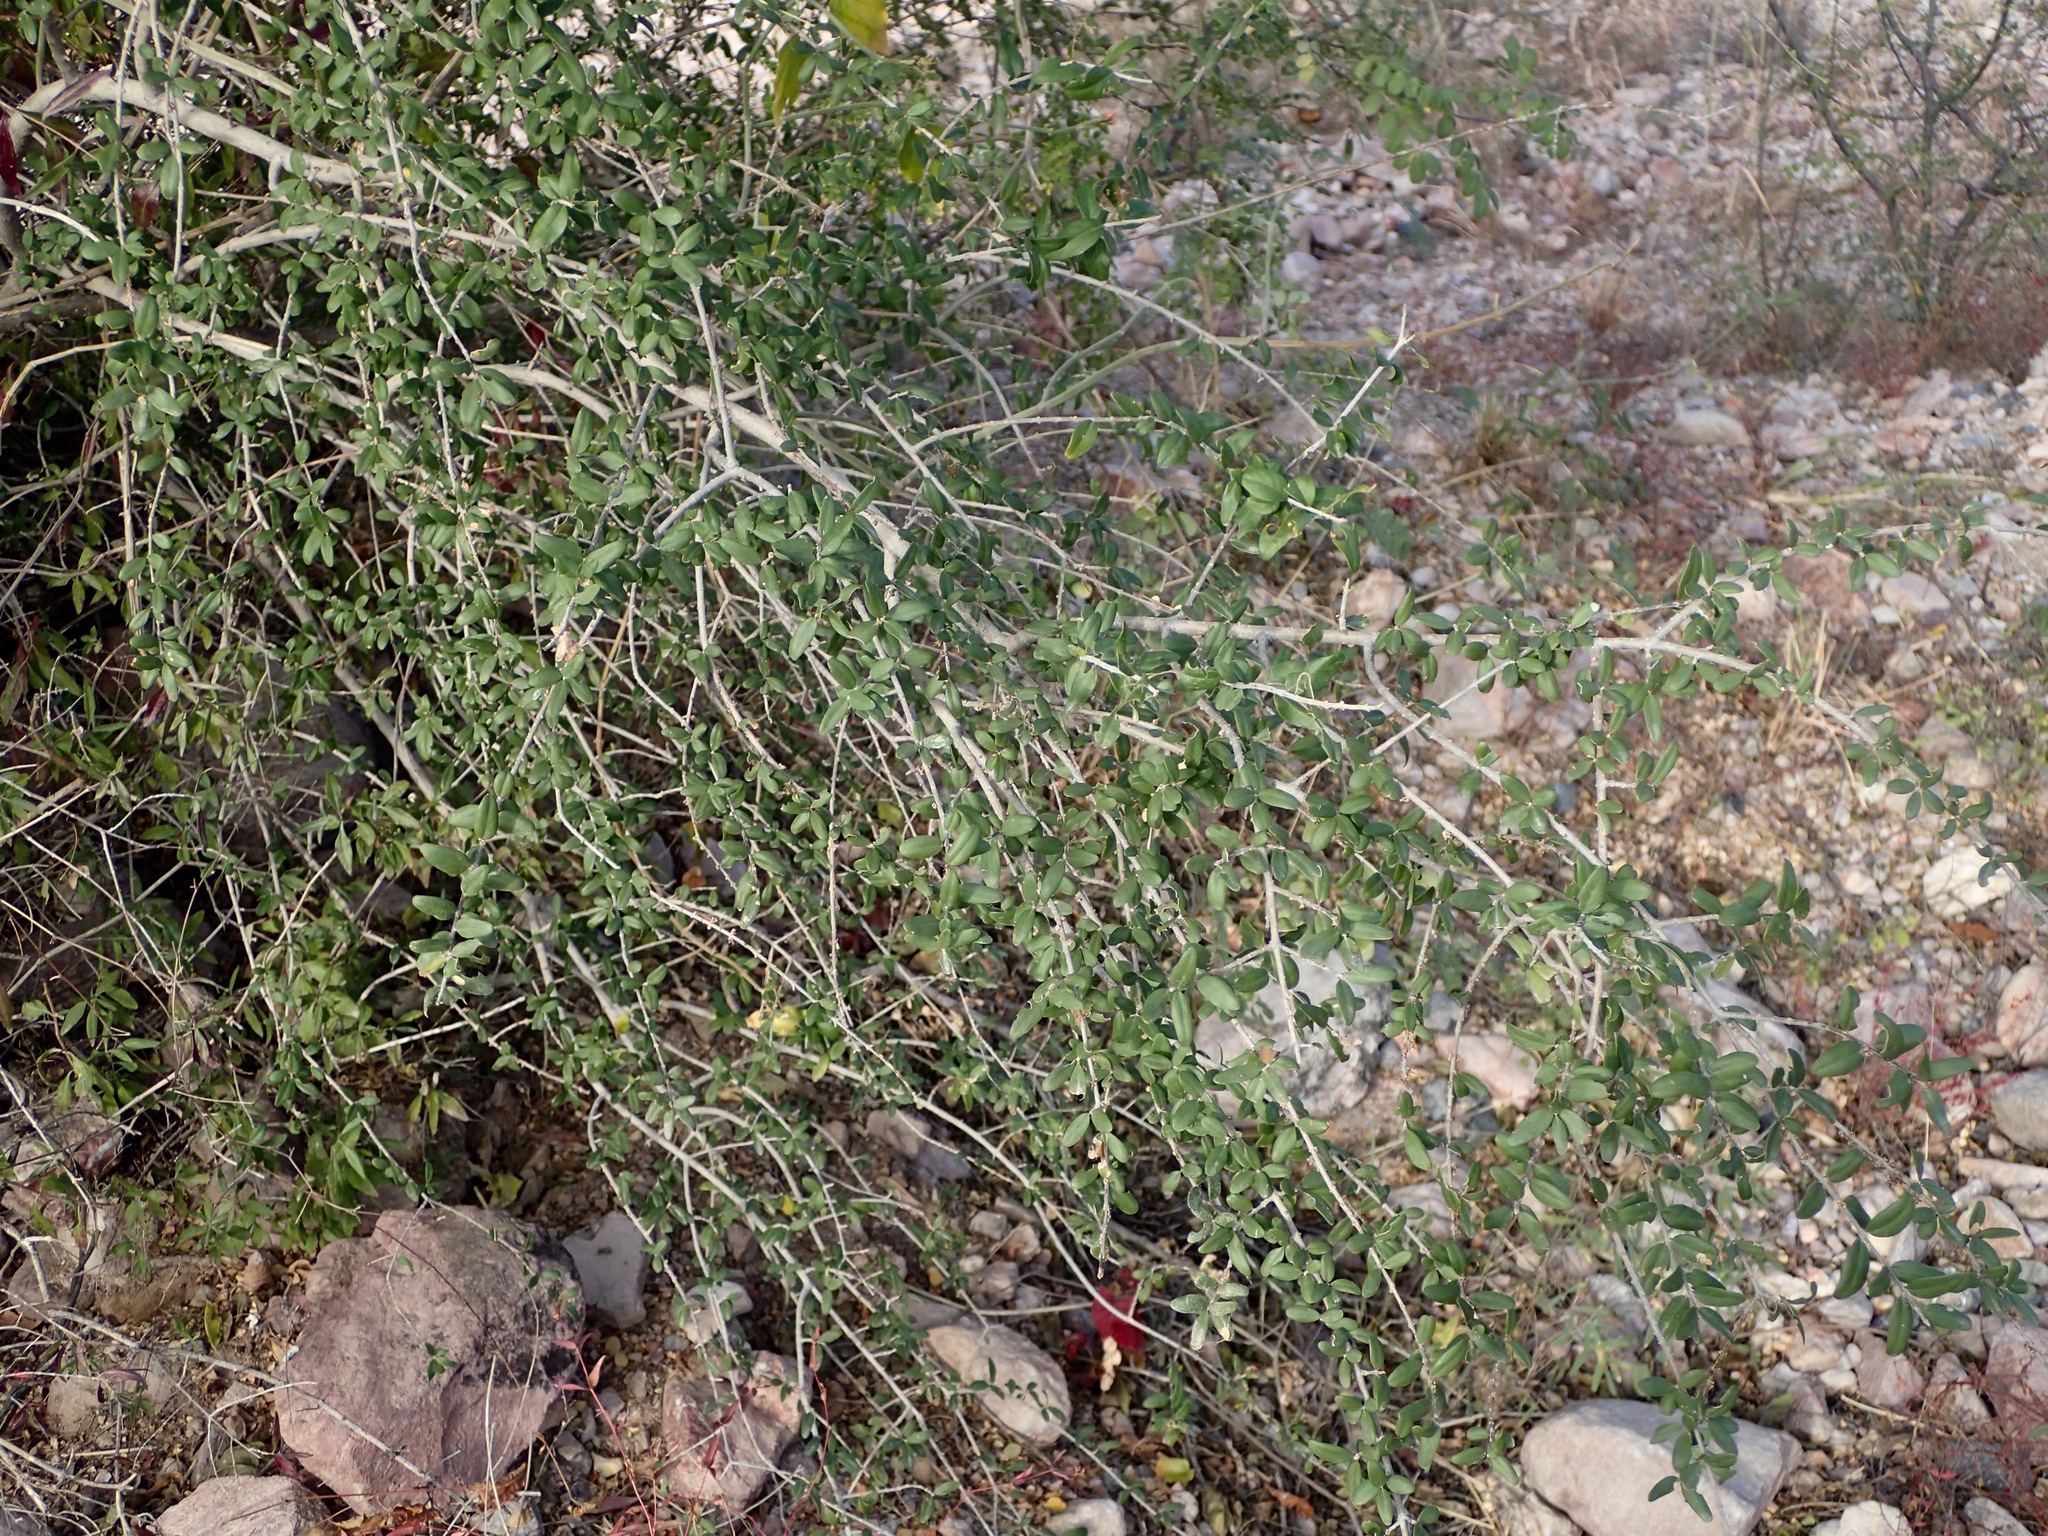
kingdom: Plantae
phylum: Tracheophyta
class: Magnoliopsida
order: Lamiales
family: Oleaceae
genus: Forestiera
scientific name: Forestiera angustifolia
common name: Elbowbush
